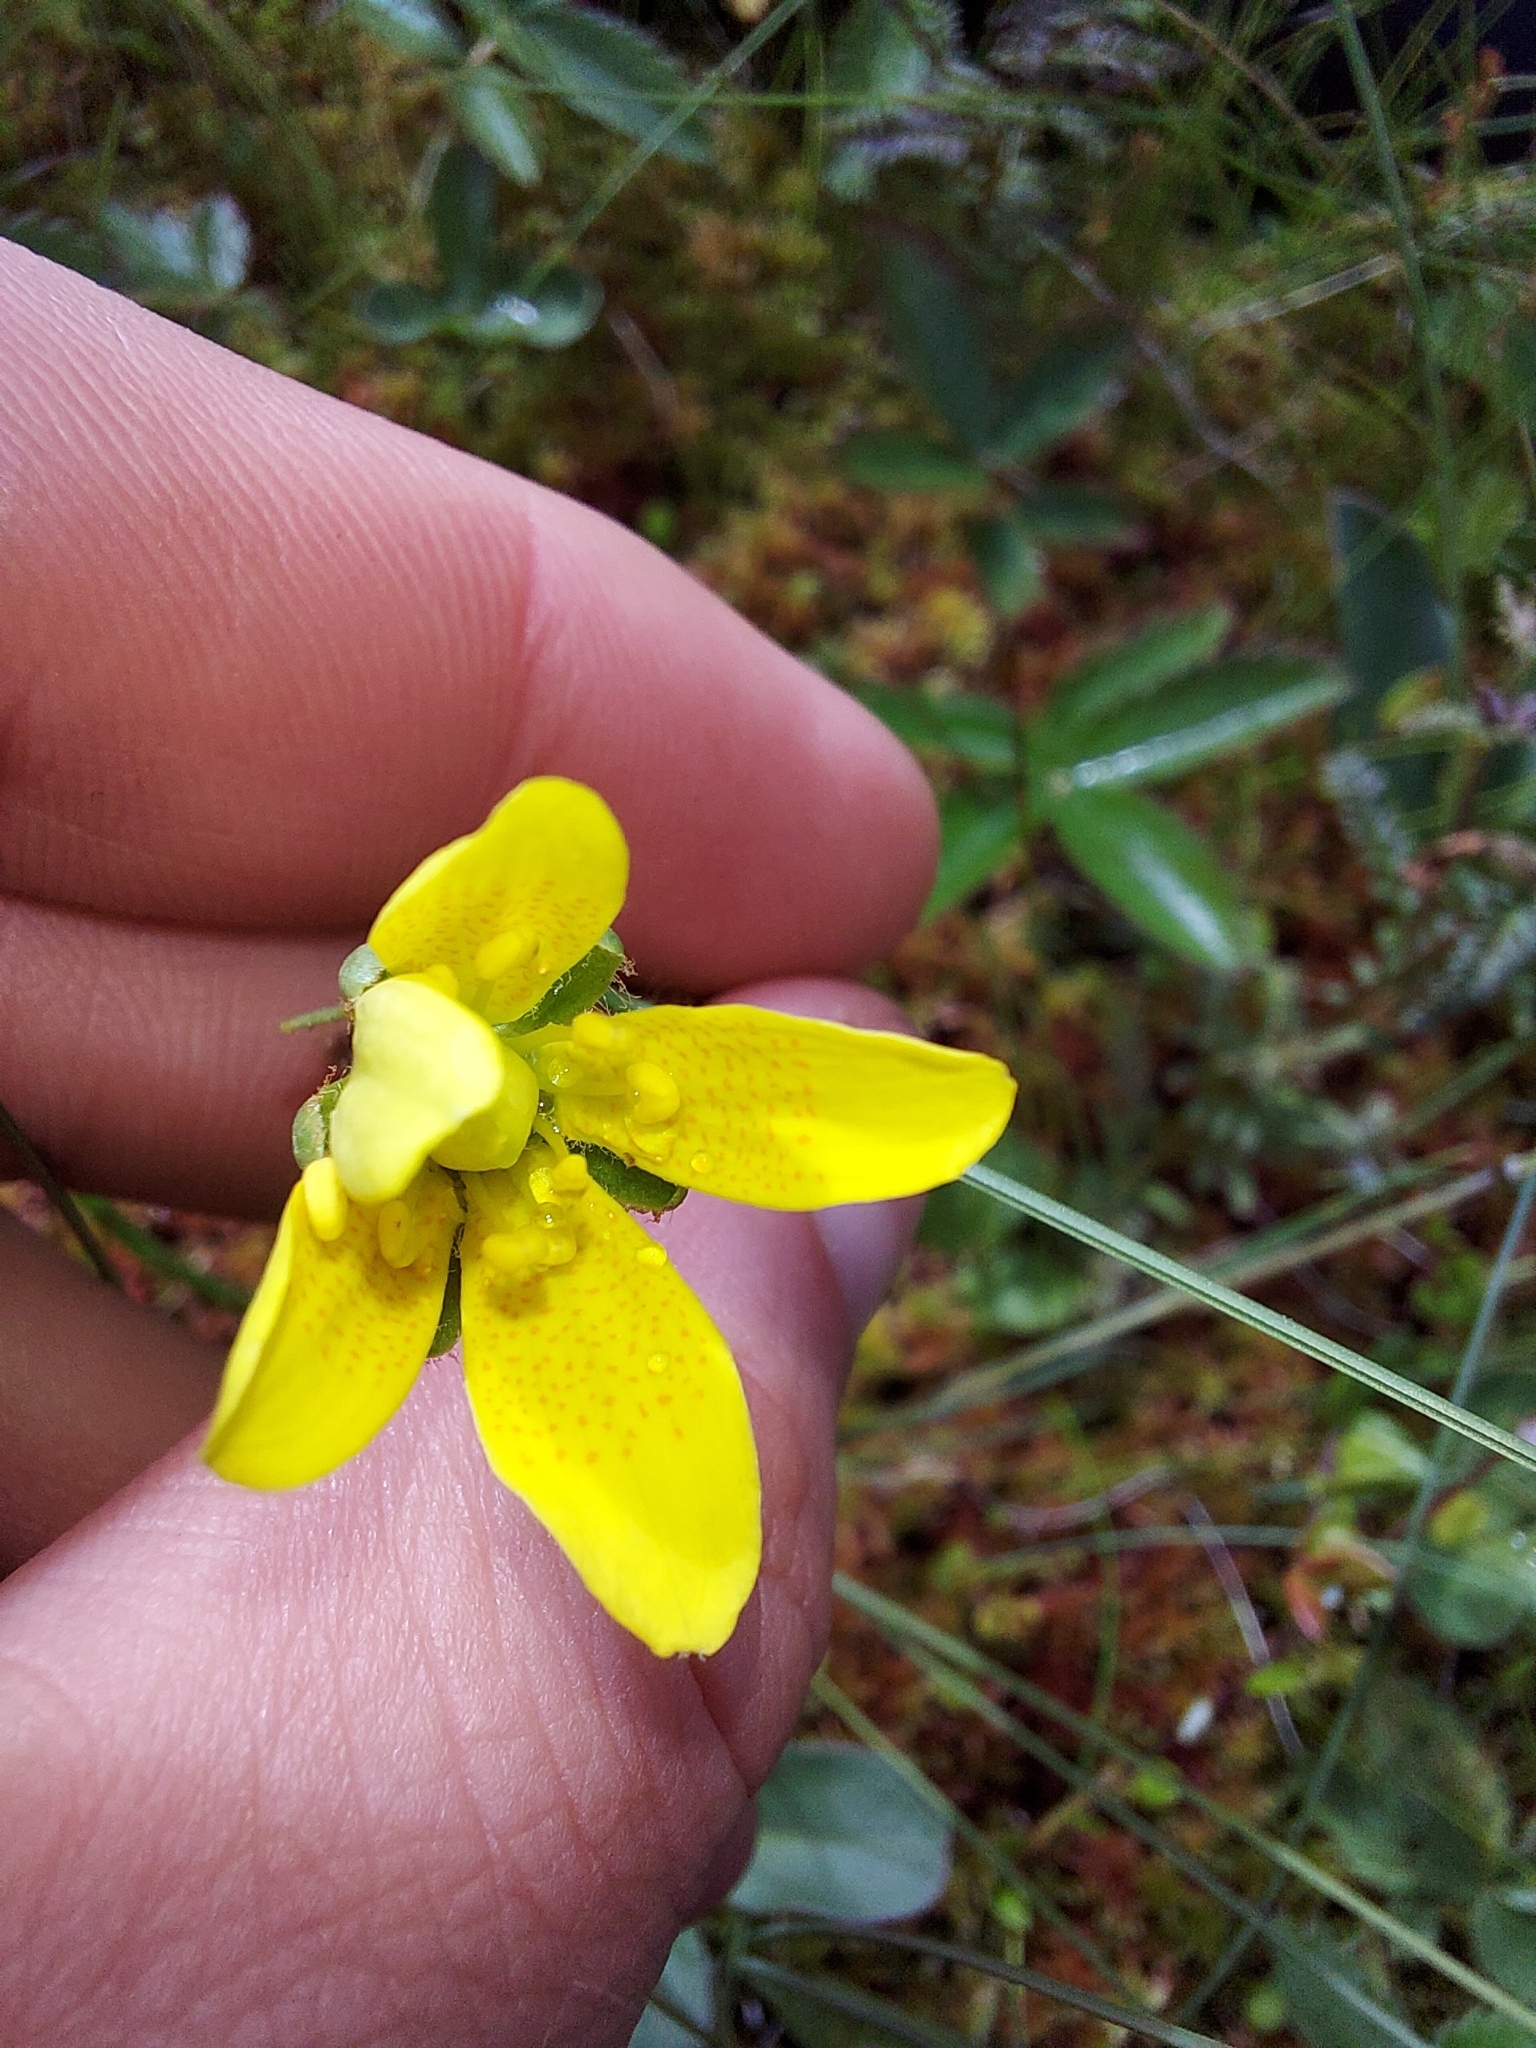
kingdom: Plantae
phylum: Tracheophyta
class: Magnoliopsida
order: Saxifragales
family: Saxifragaceae
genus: Saxifraga
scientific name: Saxifraga hirculus
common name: Yellow marsh saxifrage
